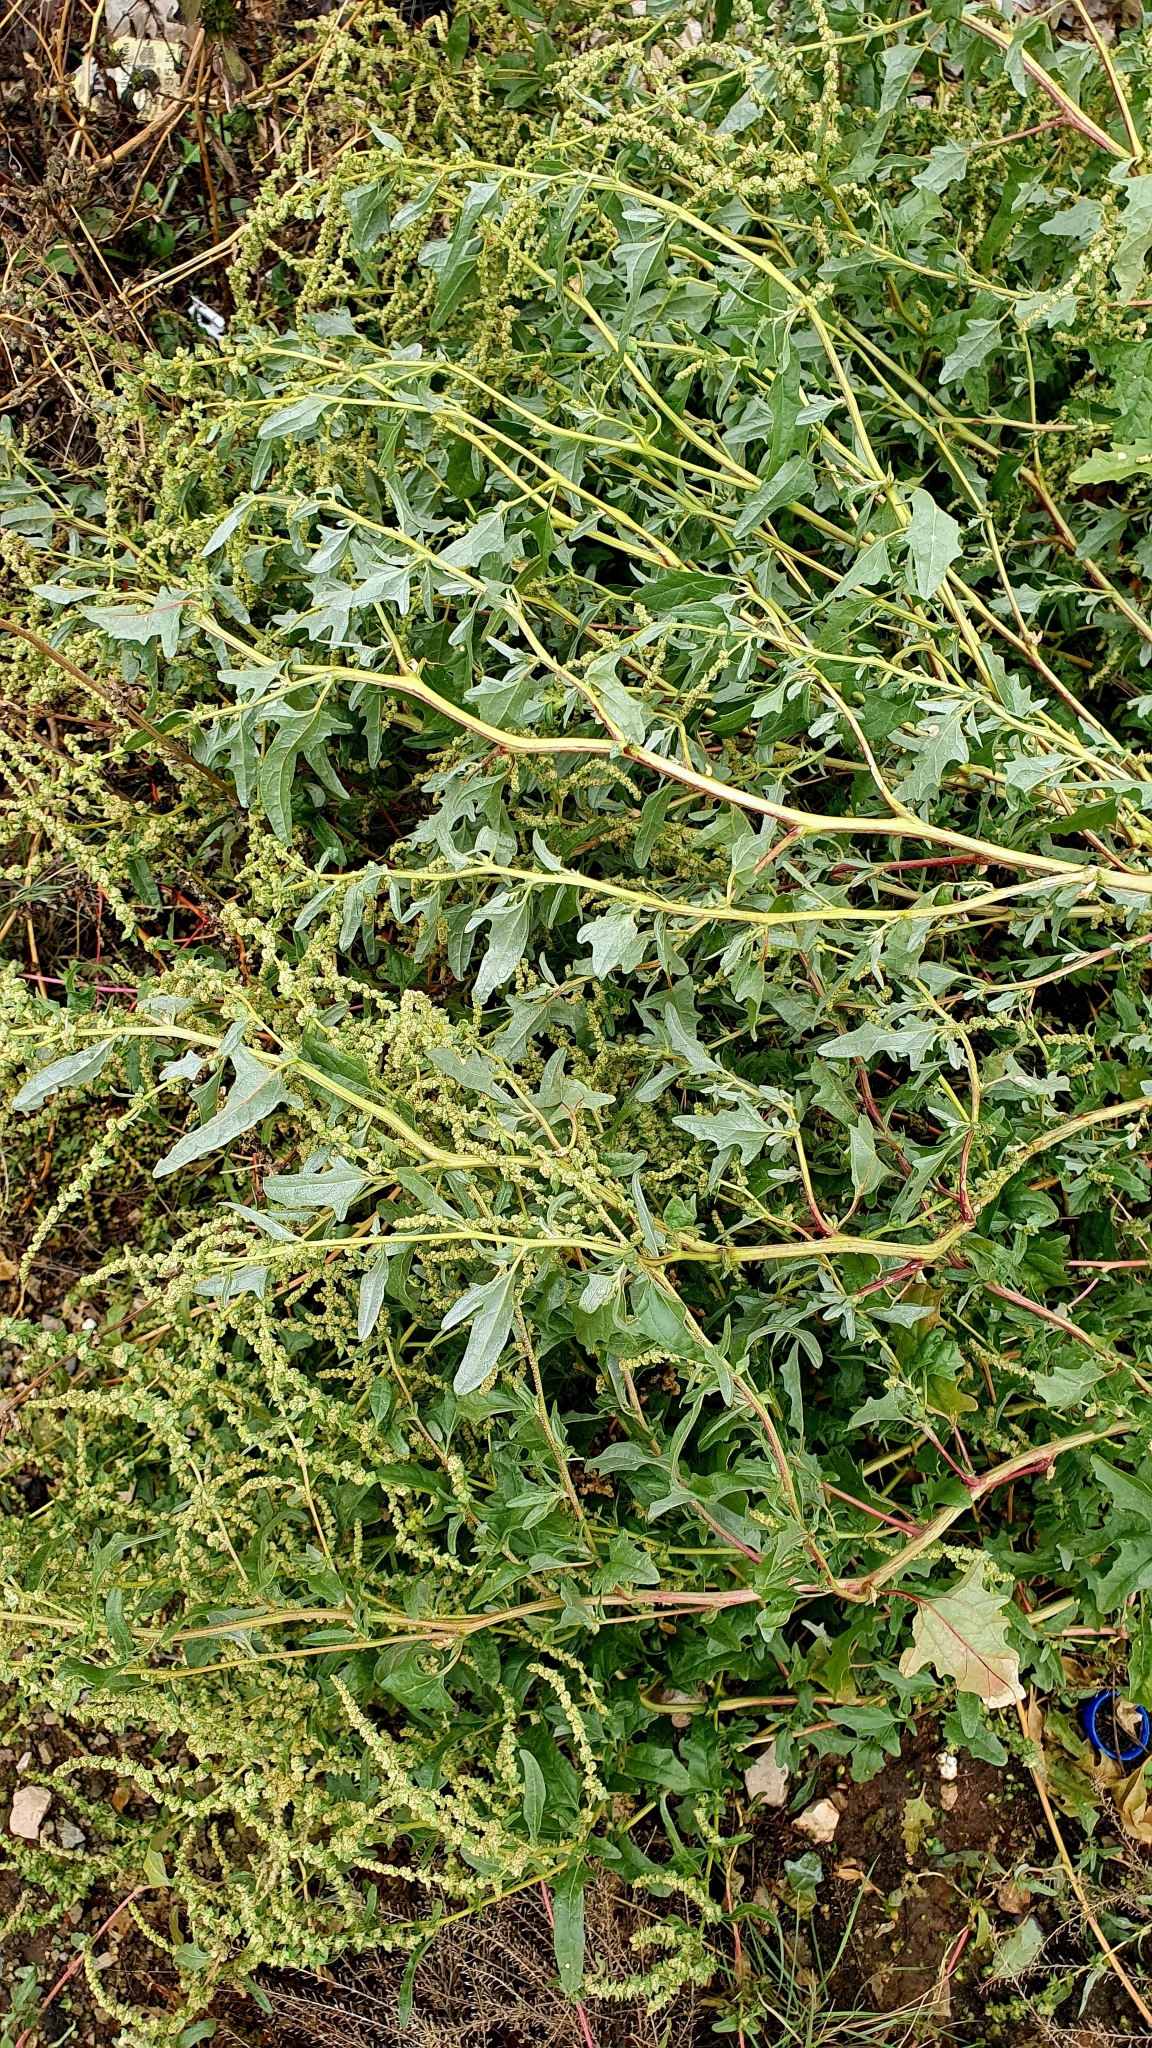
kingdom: Plantae
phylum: Tracheophyta
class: Magnoliopsida
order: Caryophyllales
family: Amaranthaceae
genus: Atriplex
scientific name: Atriplex tatarica
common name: Tatarian orache
